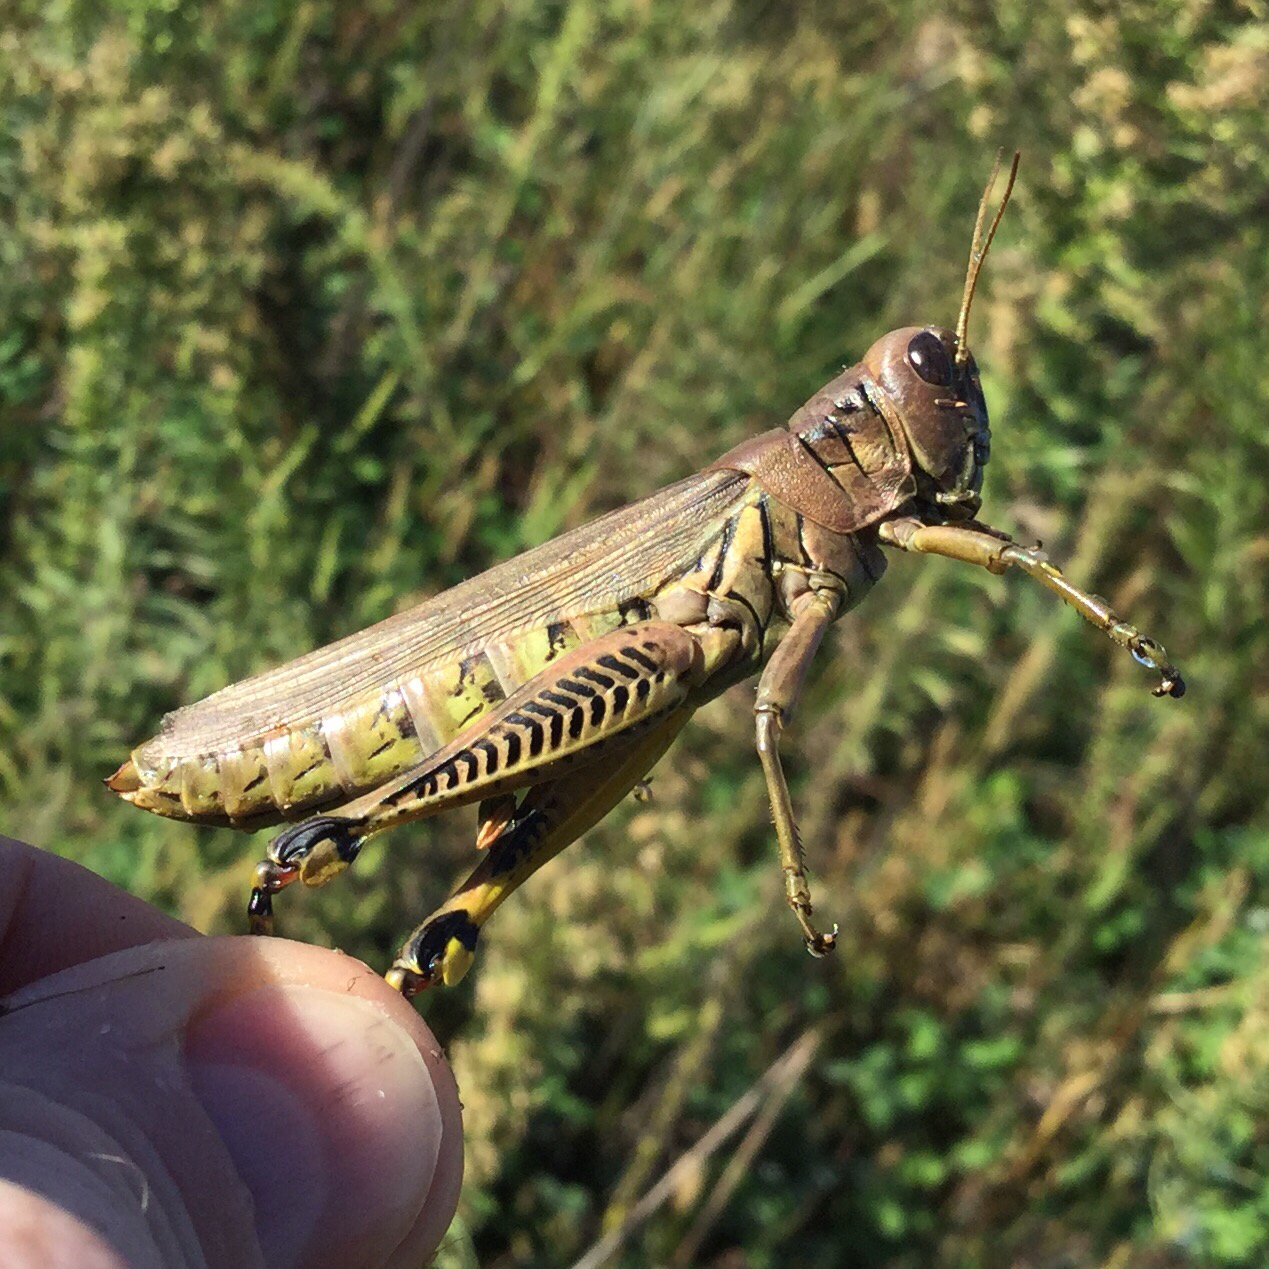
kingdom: Animalia
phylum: Arthropoda
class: Insecta
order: Orthoptera
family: Acrididae
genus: Melanoplus
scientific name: Melanoplus differentialis
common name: Differential grasshopper
